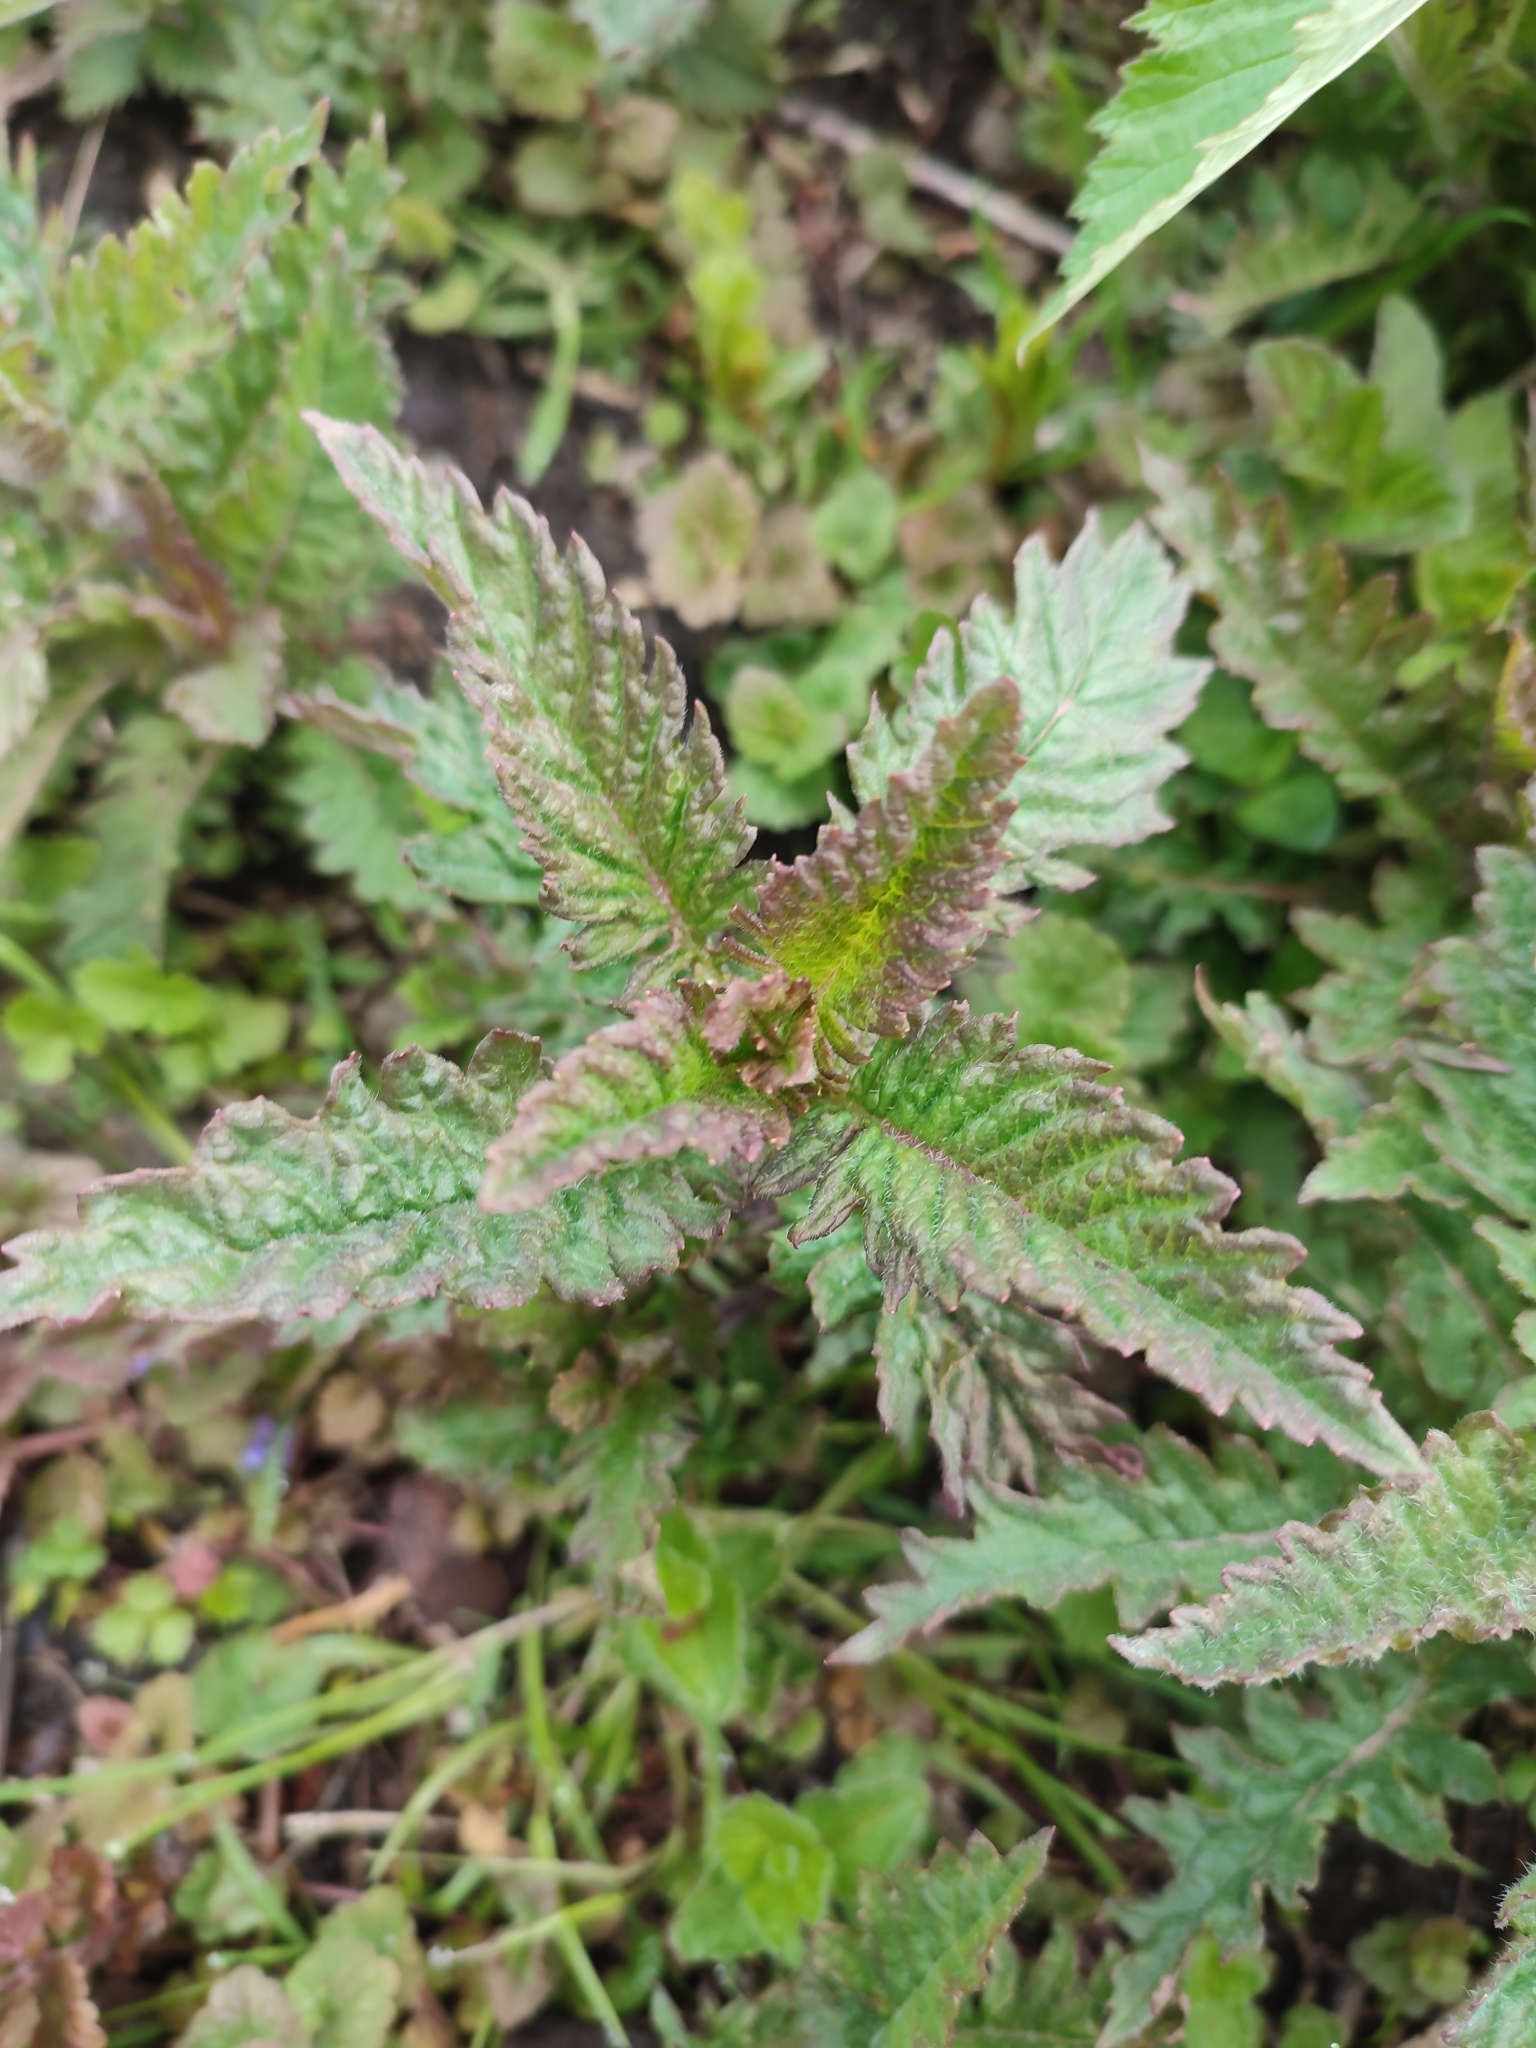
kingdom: Plantae
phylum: Tracheophyta
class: Magnoliopsida
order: Lamiales
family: Lamiaceae
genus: Lycopus
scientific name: Lycopus europaeus
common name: European bugleweed
